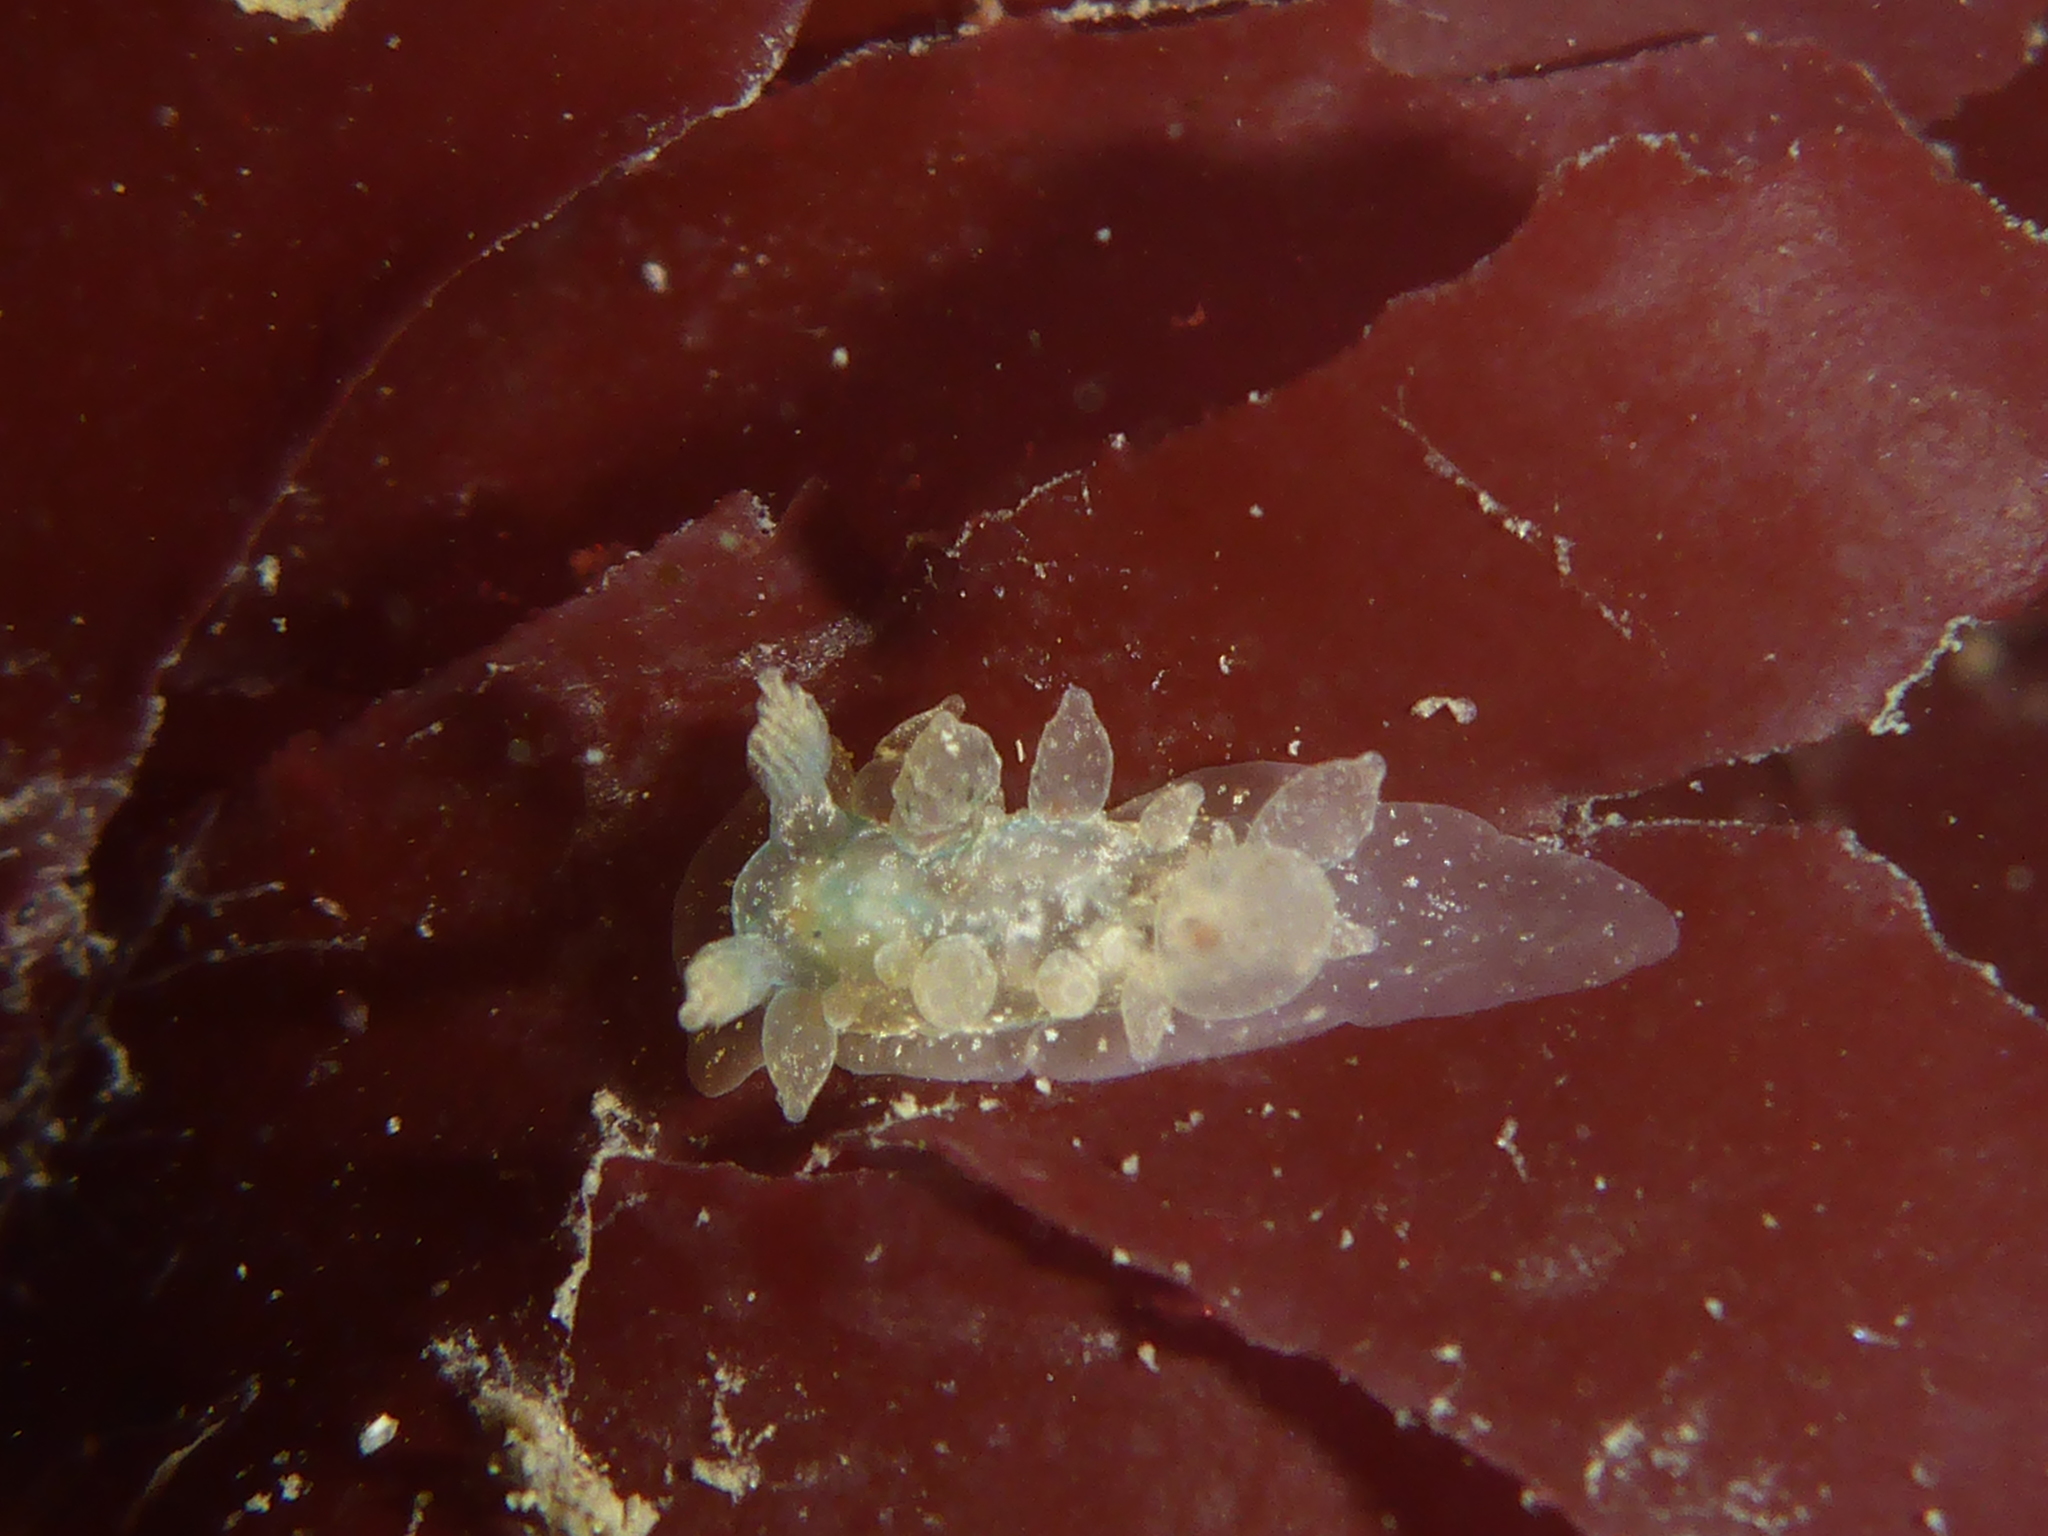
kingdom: Animalia
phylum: Mollusca
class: Gastropoda
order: Nudibranchia
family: Dironidae
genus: Dirona
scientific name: Dirona picta
